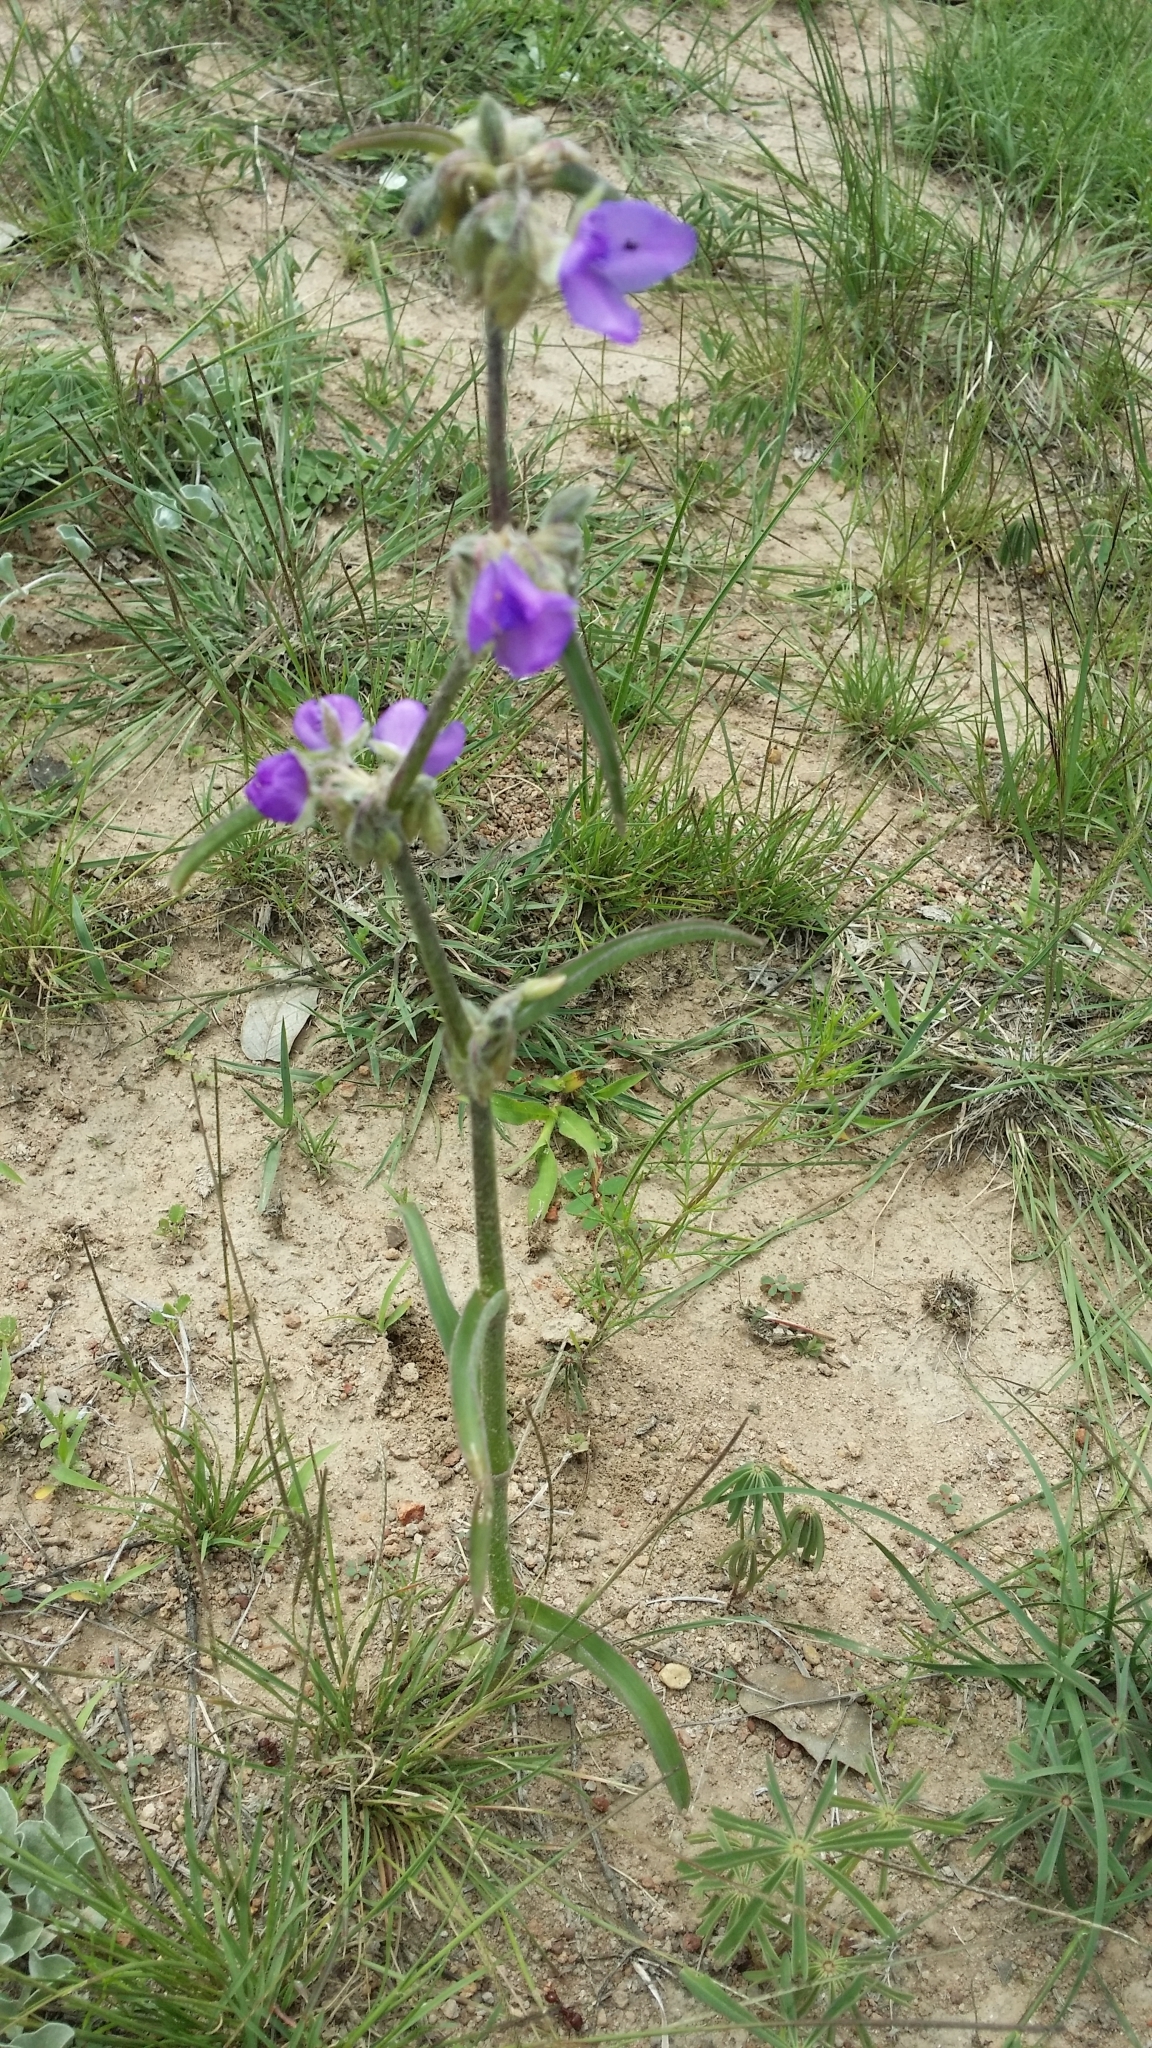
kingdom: Plantae
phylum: Tracheophyta
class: Liliopsida
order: Commelinales
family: Commelinaceae
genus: Tradescantia
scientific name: Tradescantia pinetorum
